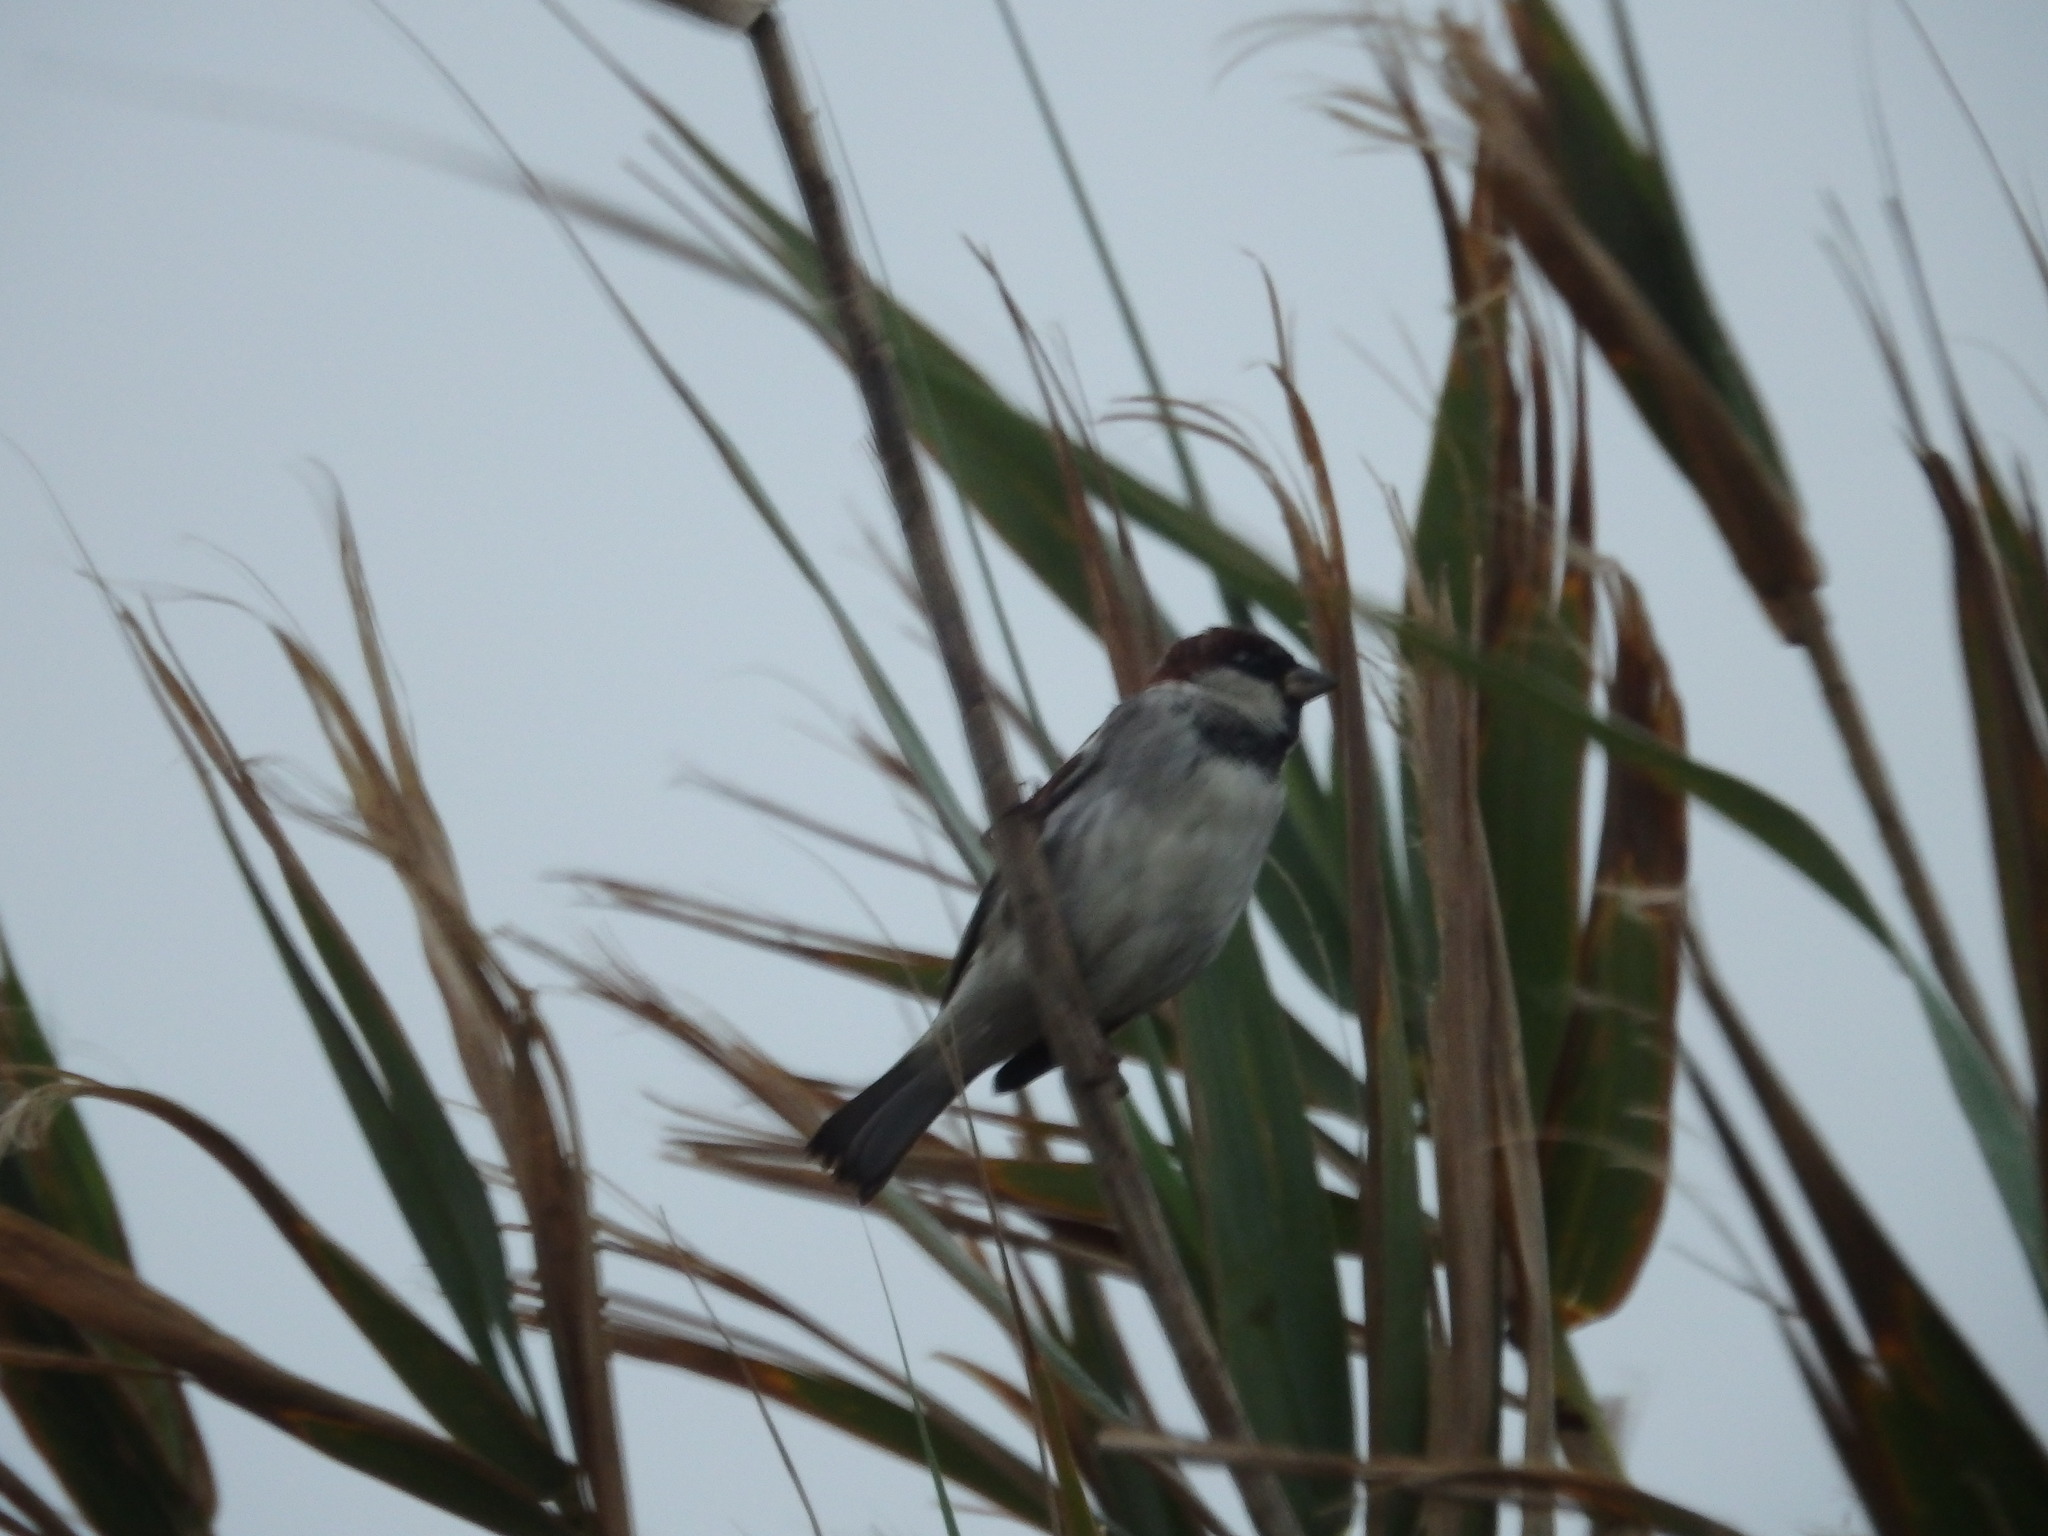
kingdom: Animalia
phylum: Chordata
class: Aves
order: Passeriformes
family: Passeridae
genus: Passer
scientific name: Passer domesticus
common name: House sparrow
